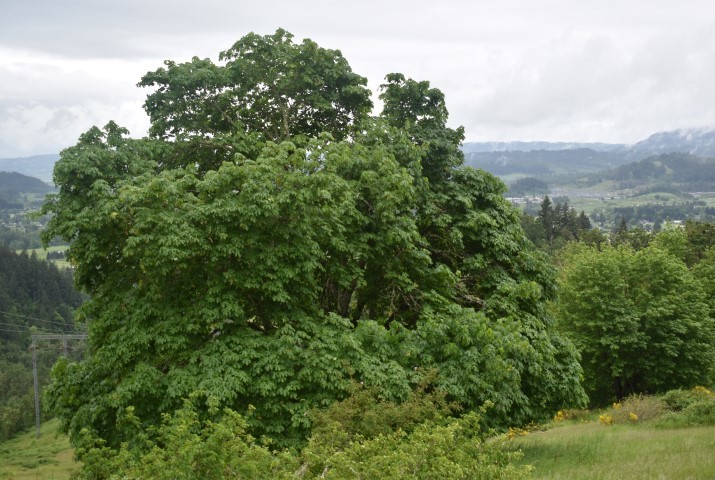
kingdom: Plantae
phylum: Tracheophyta
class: Magnoliopsida
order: Sapindales
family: Sapindaceae
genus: Acer
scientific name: Acer macrophyllum
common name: Oregon maple
